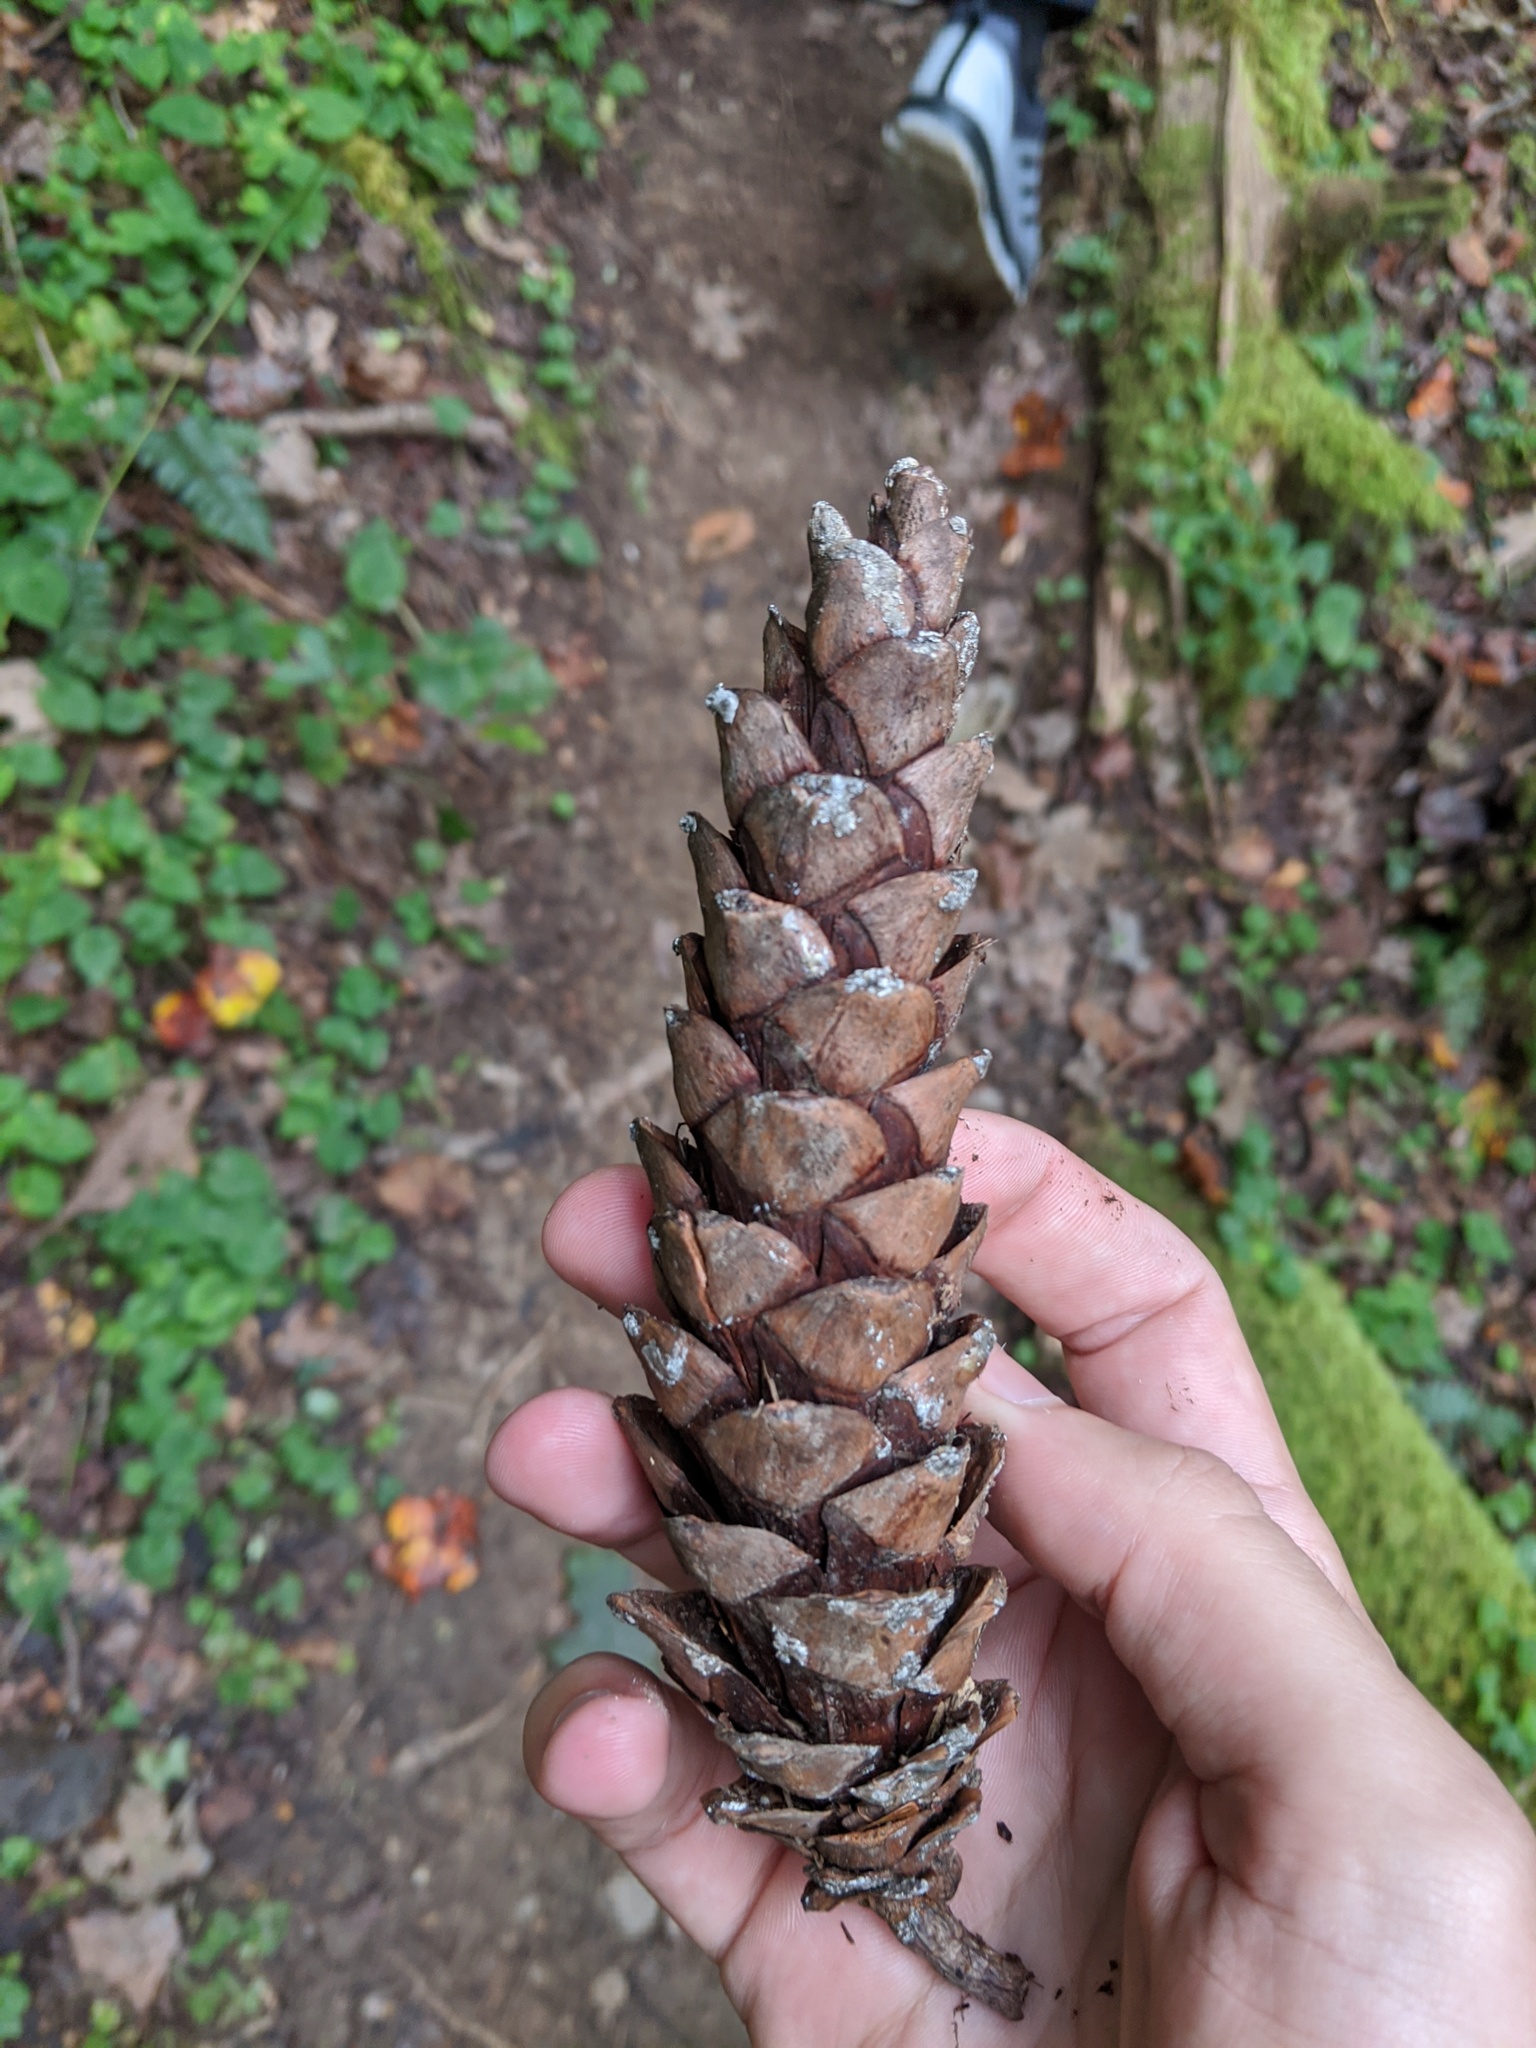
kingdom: Plantae
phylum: Tracheophyta
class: Pinopsida
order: Pinales
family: Pinaceae
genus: Pinus
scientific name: Pinus strobus
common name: Weymouth pine
